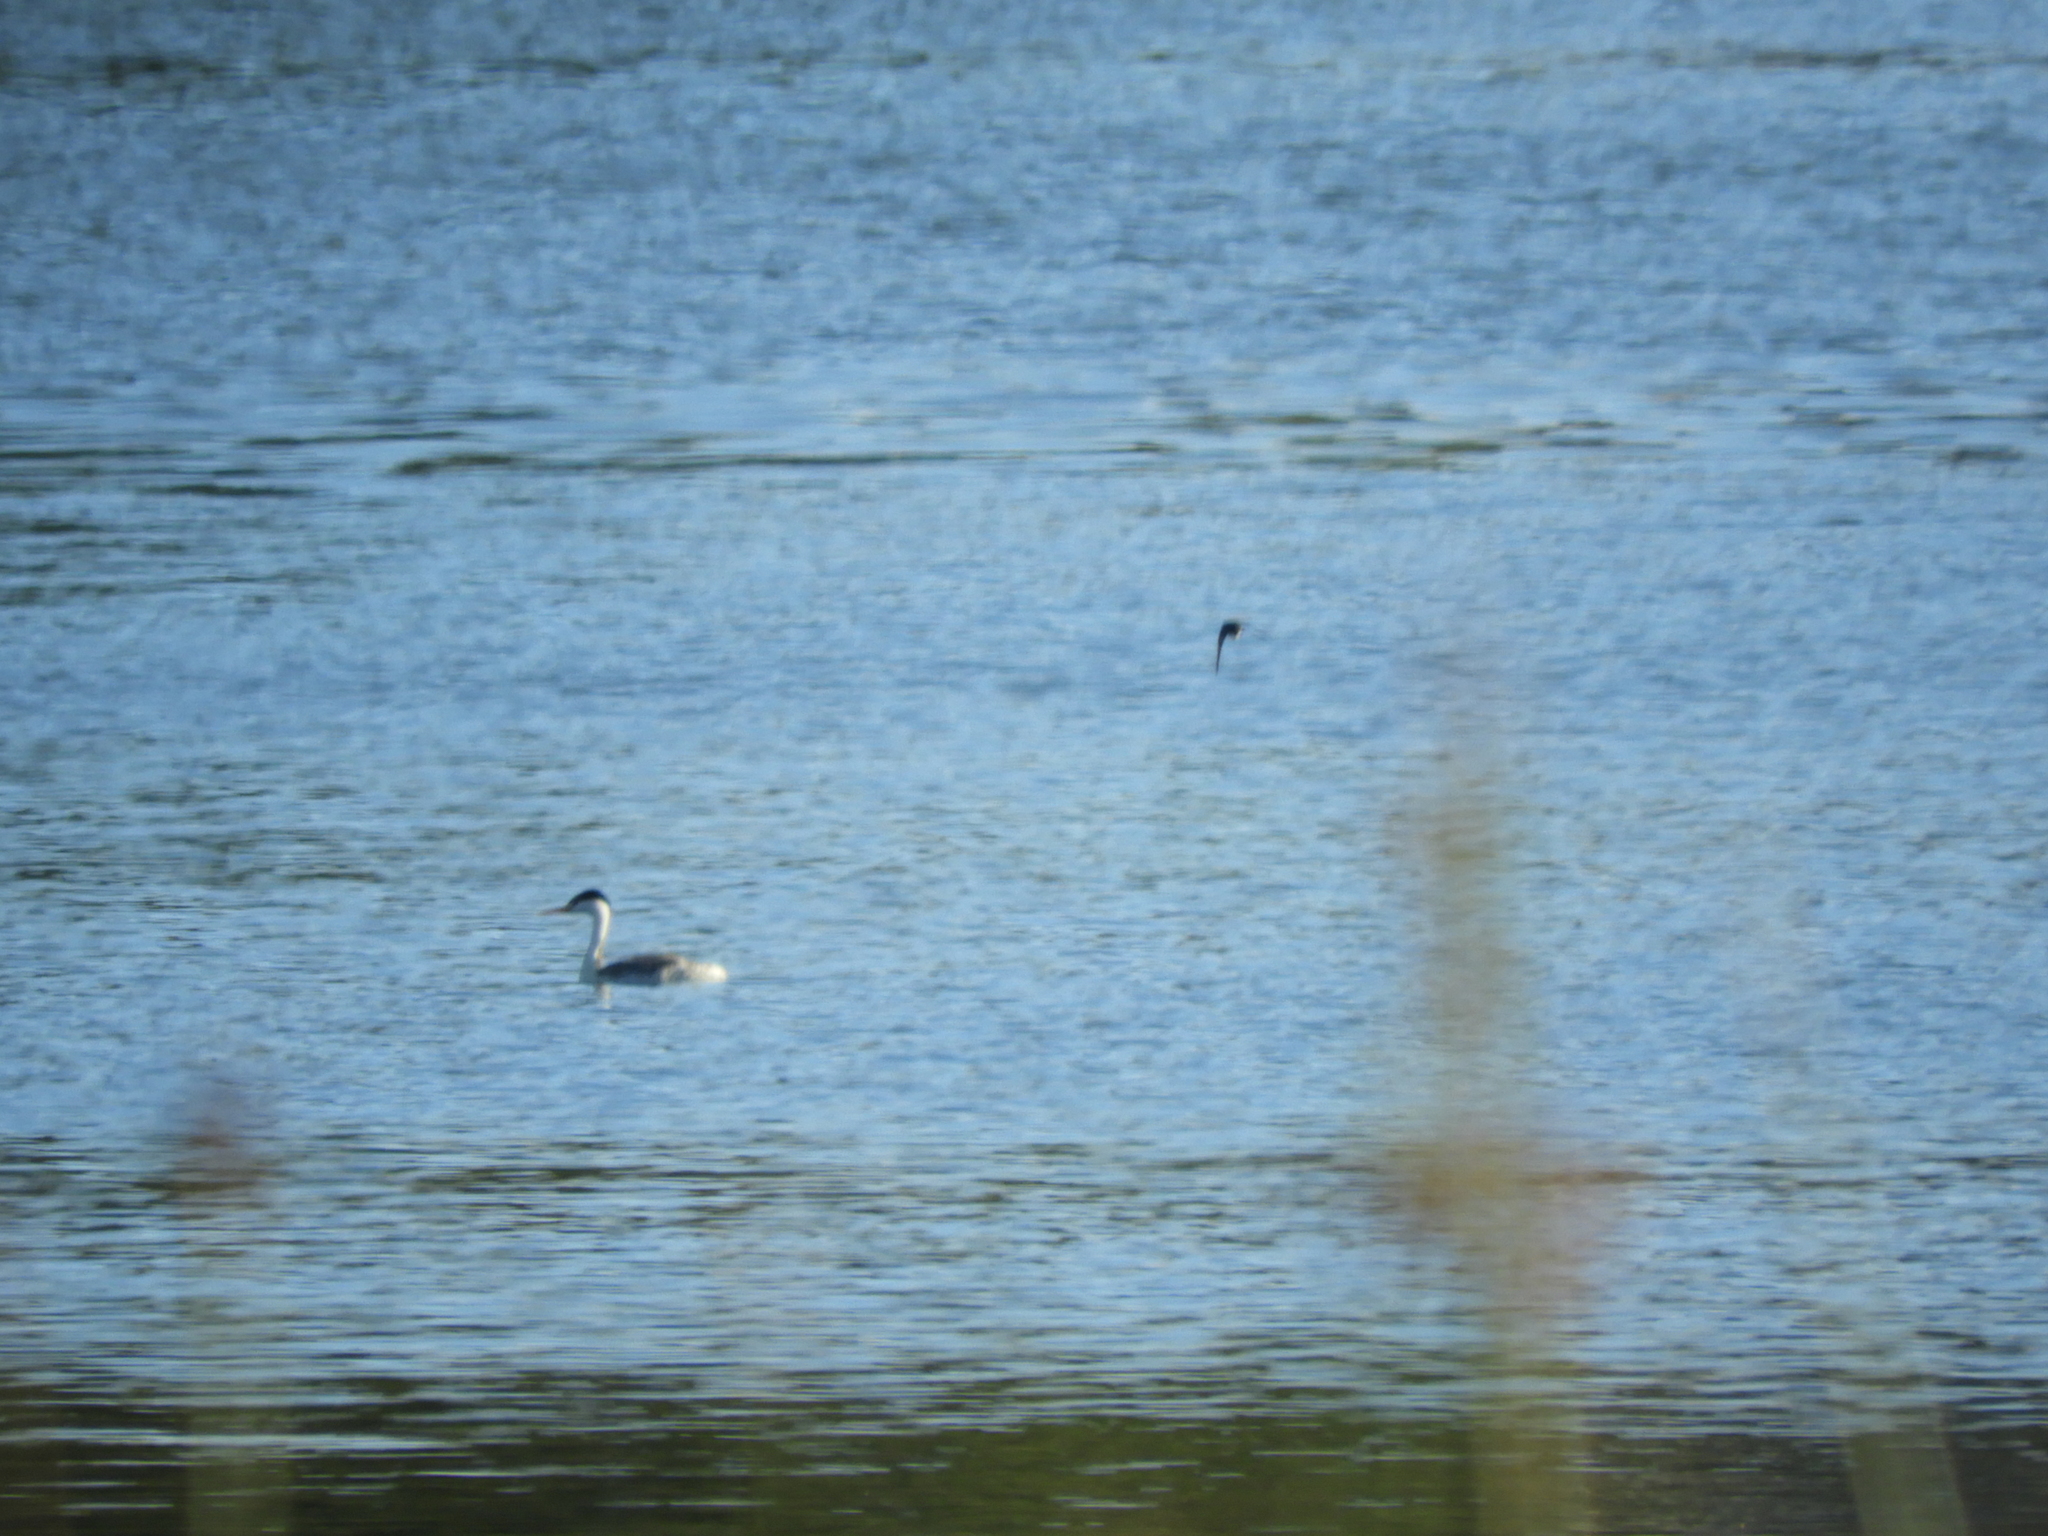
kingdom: Animalia
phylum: Chordata
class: Aves
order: Podicipediformes
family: Podicipedidae
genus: Aechmophorus
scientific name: Aechmophorus clarkii
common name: Clark's grebe
